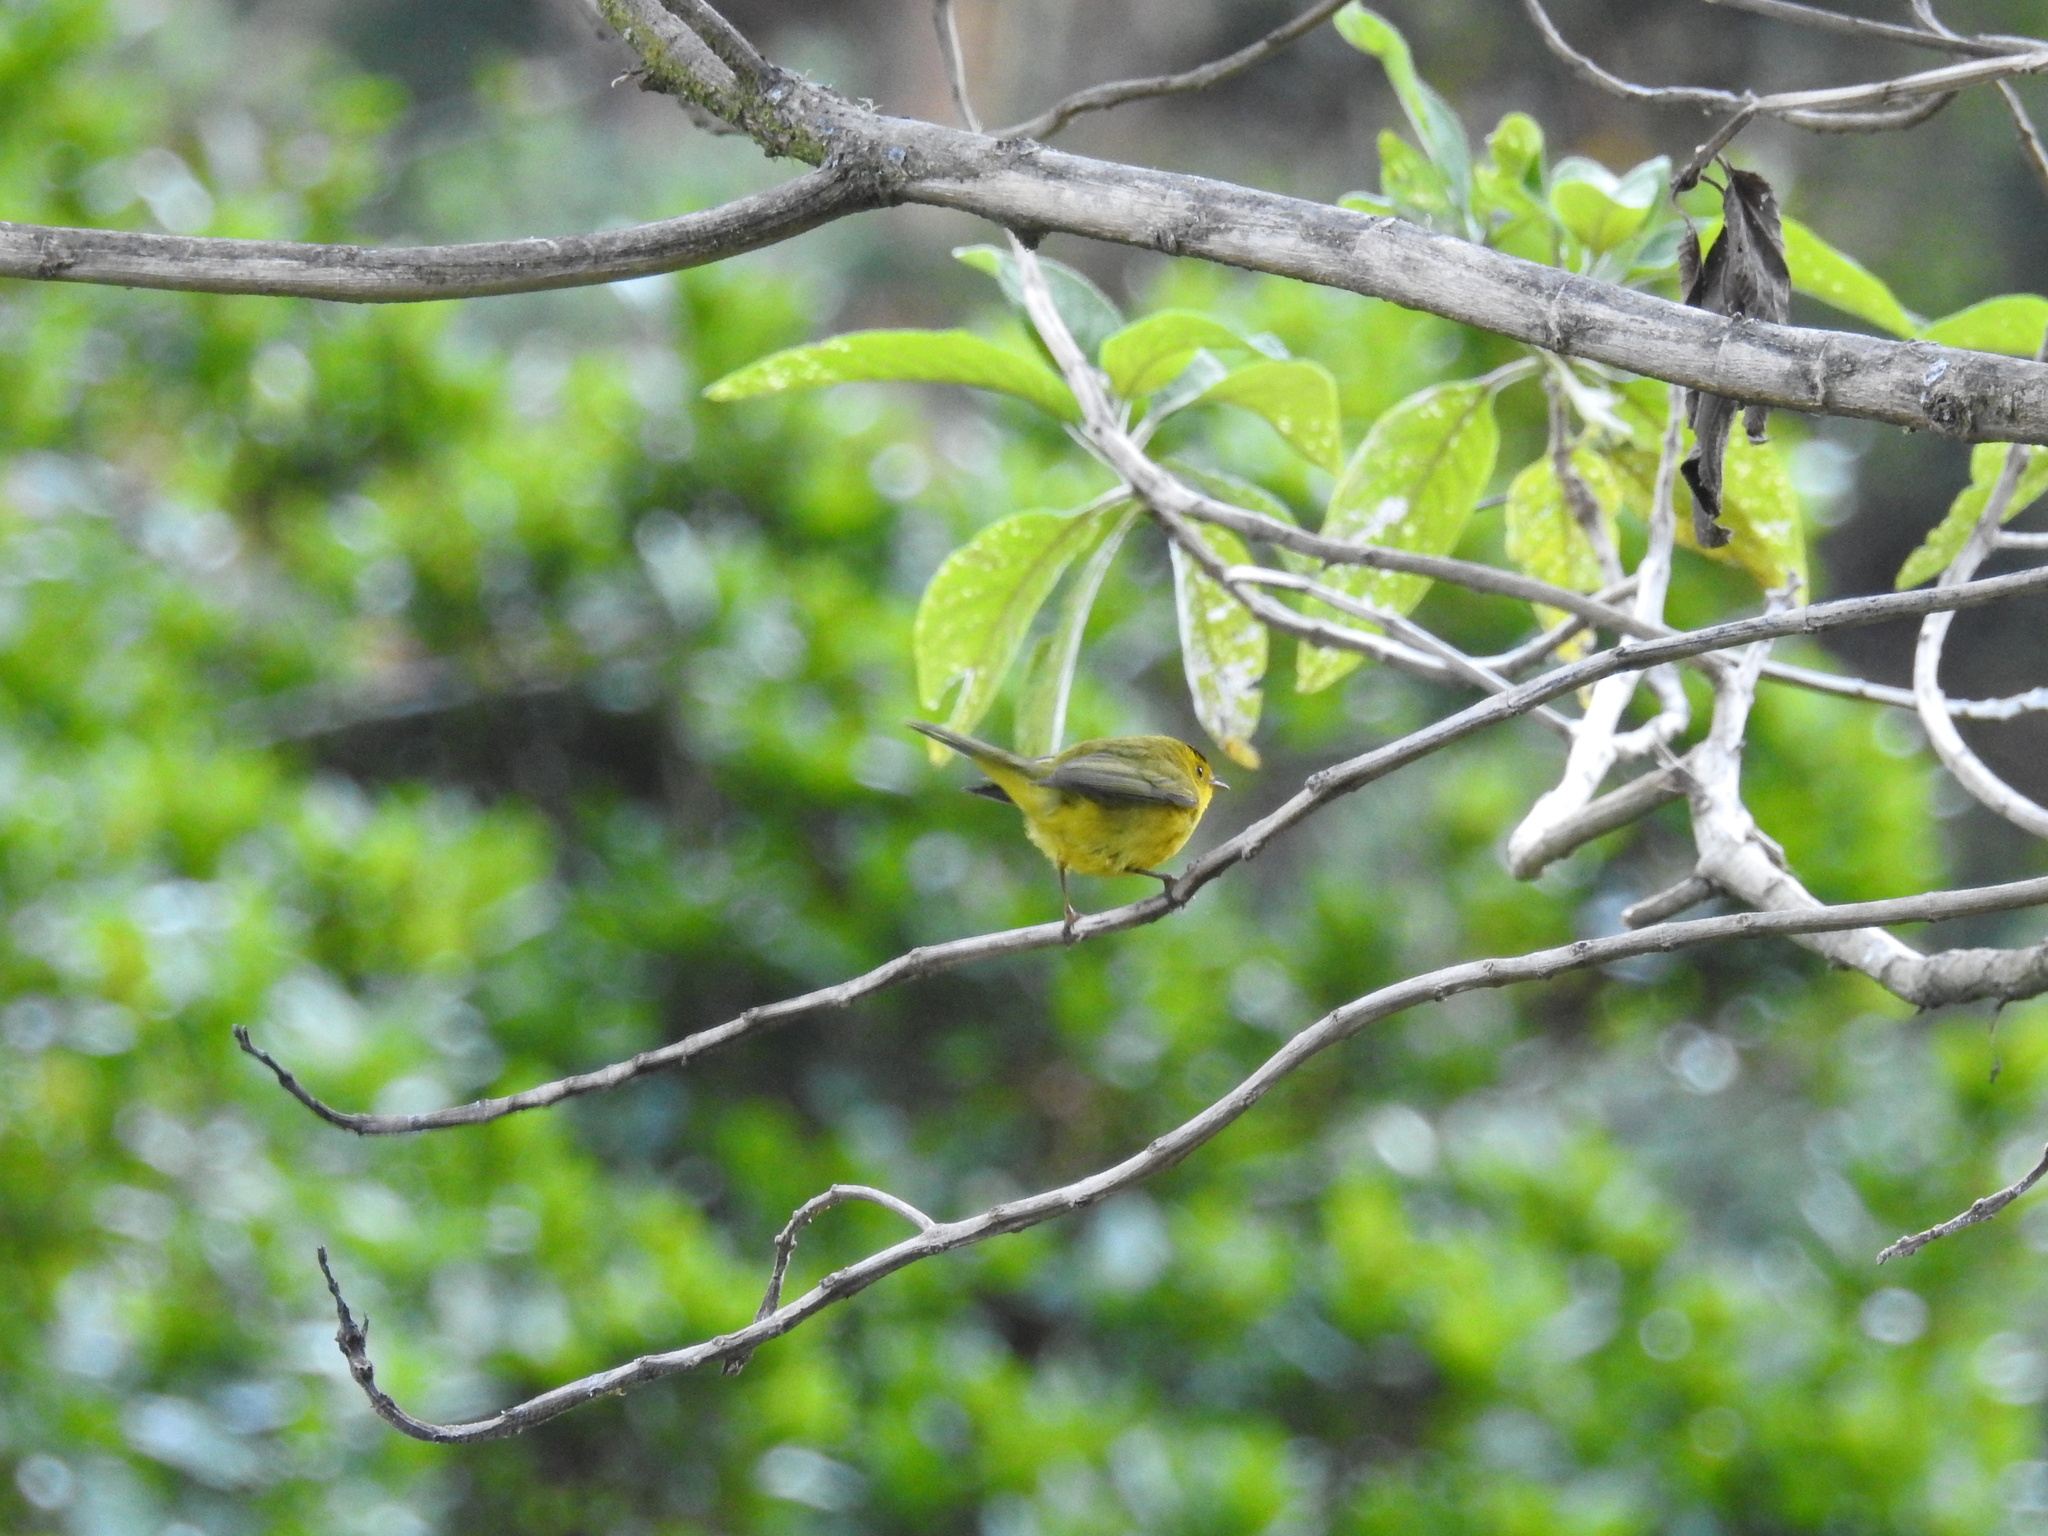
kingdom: Animalia
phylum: Chordata
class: Aves
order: Passeriformes
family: Parulidae
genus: Cardellina
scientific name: Cardellina pusilla
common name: Wilson's warbler
